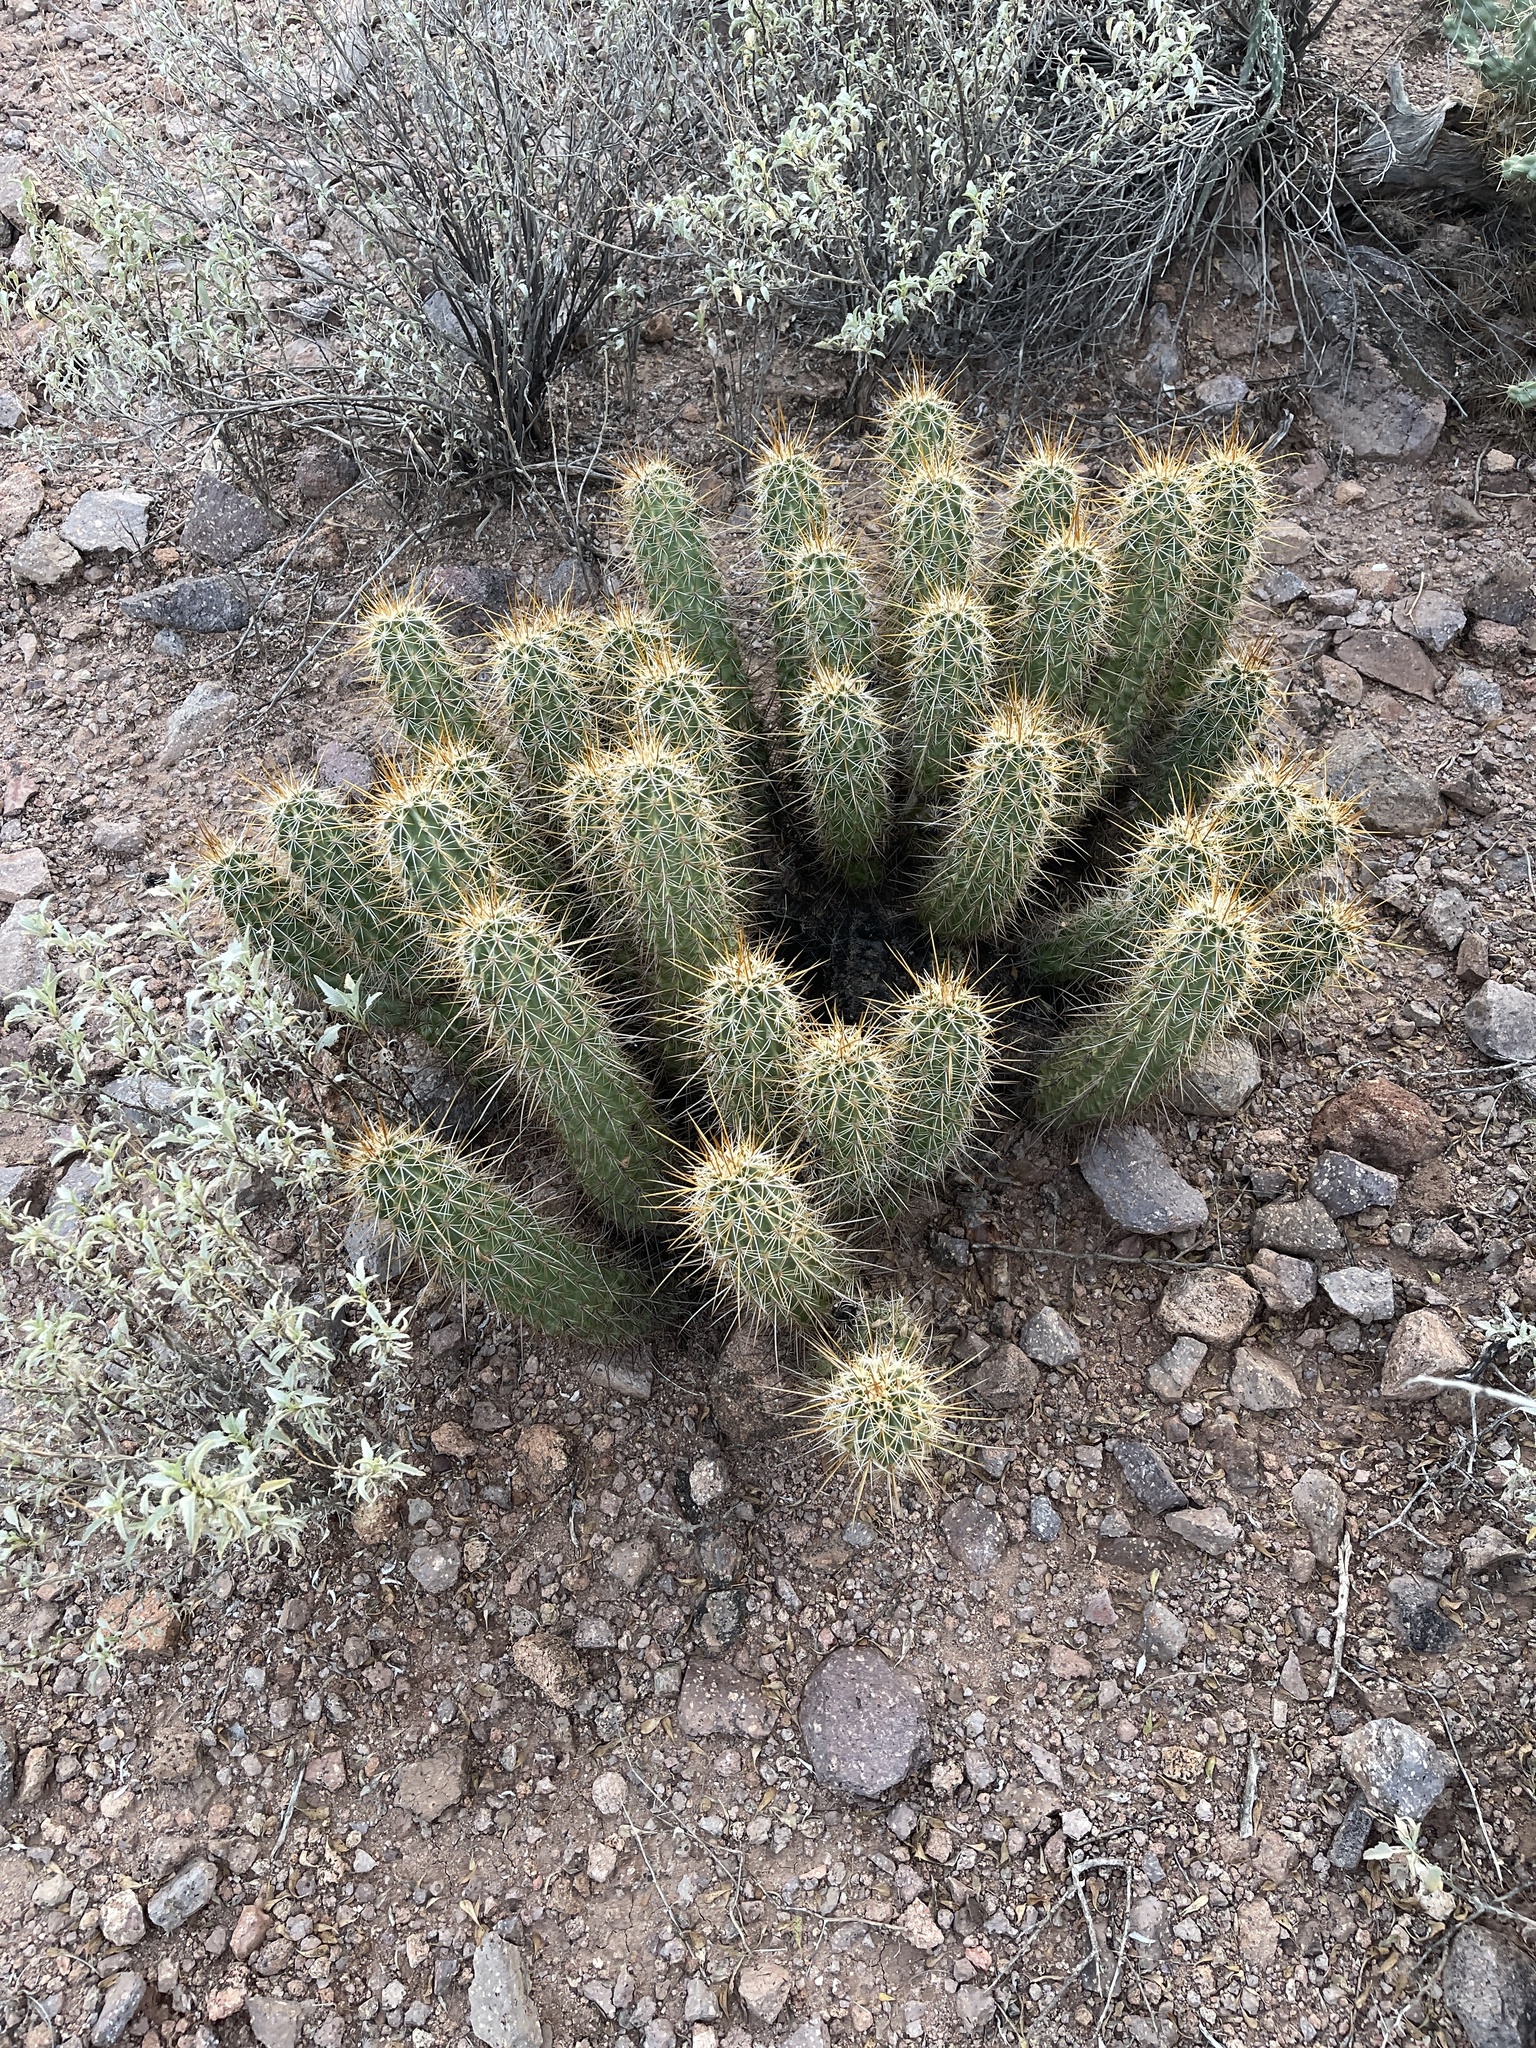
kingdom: Plantae
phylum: Tracheophyta
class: Magnoliopsida
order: Caryophyllales
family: Cactaceae
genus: Echinocereus
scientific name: Echinocereus engelmannii
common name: Engelmann's hedgehog cactus
